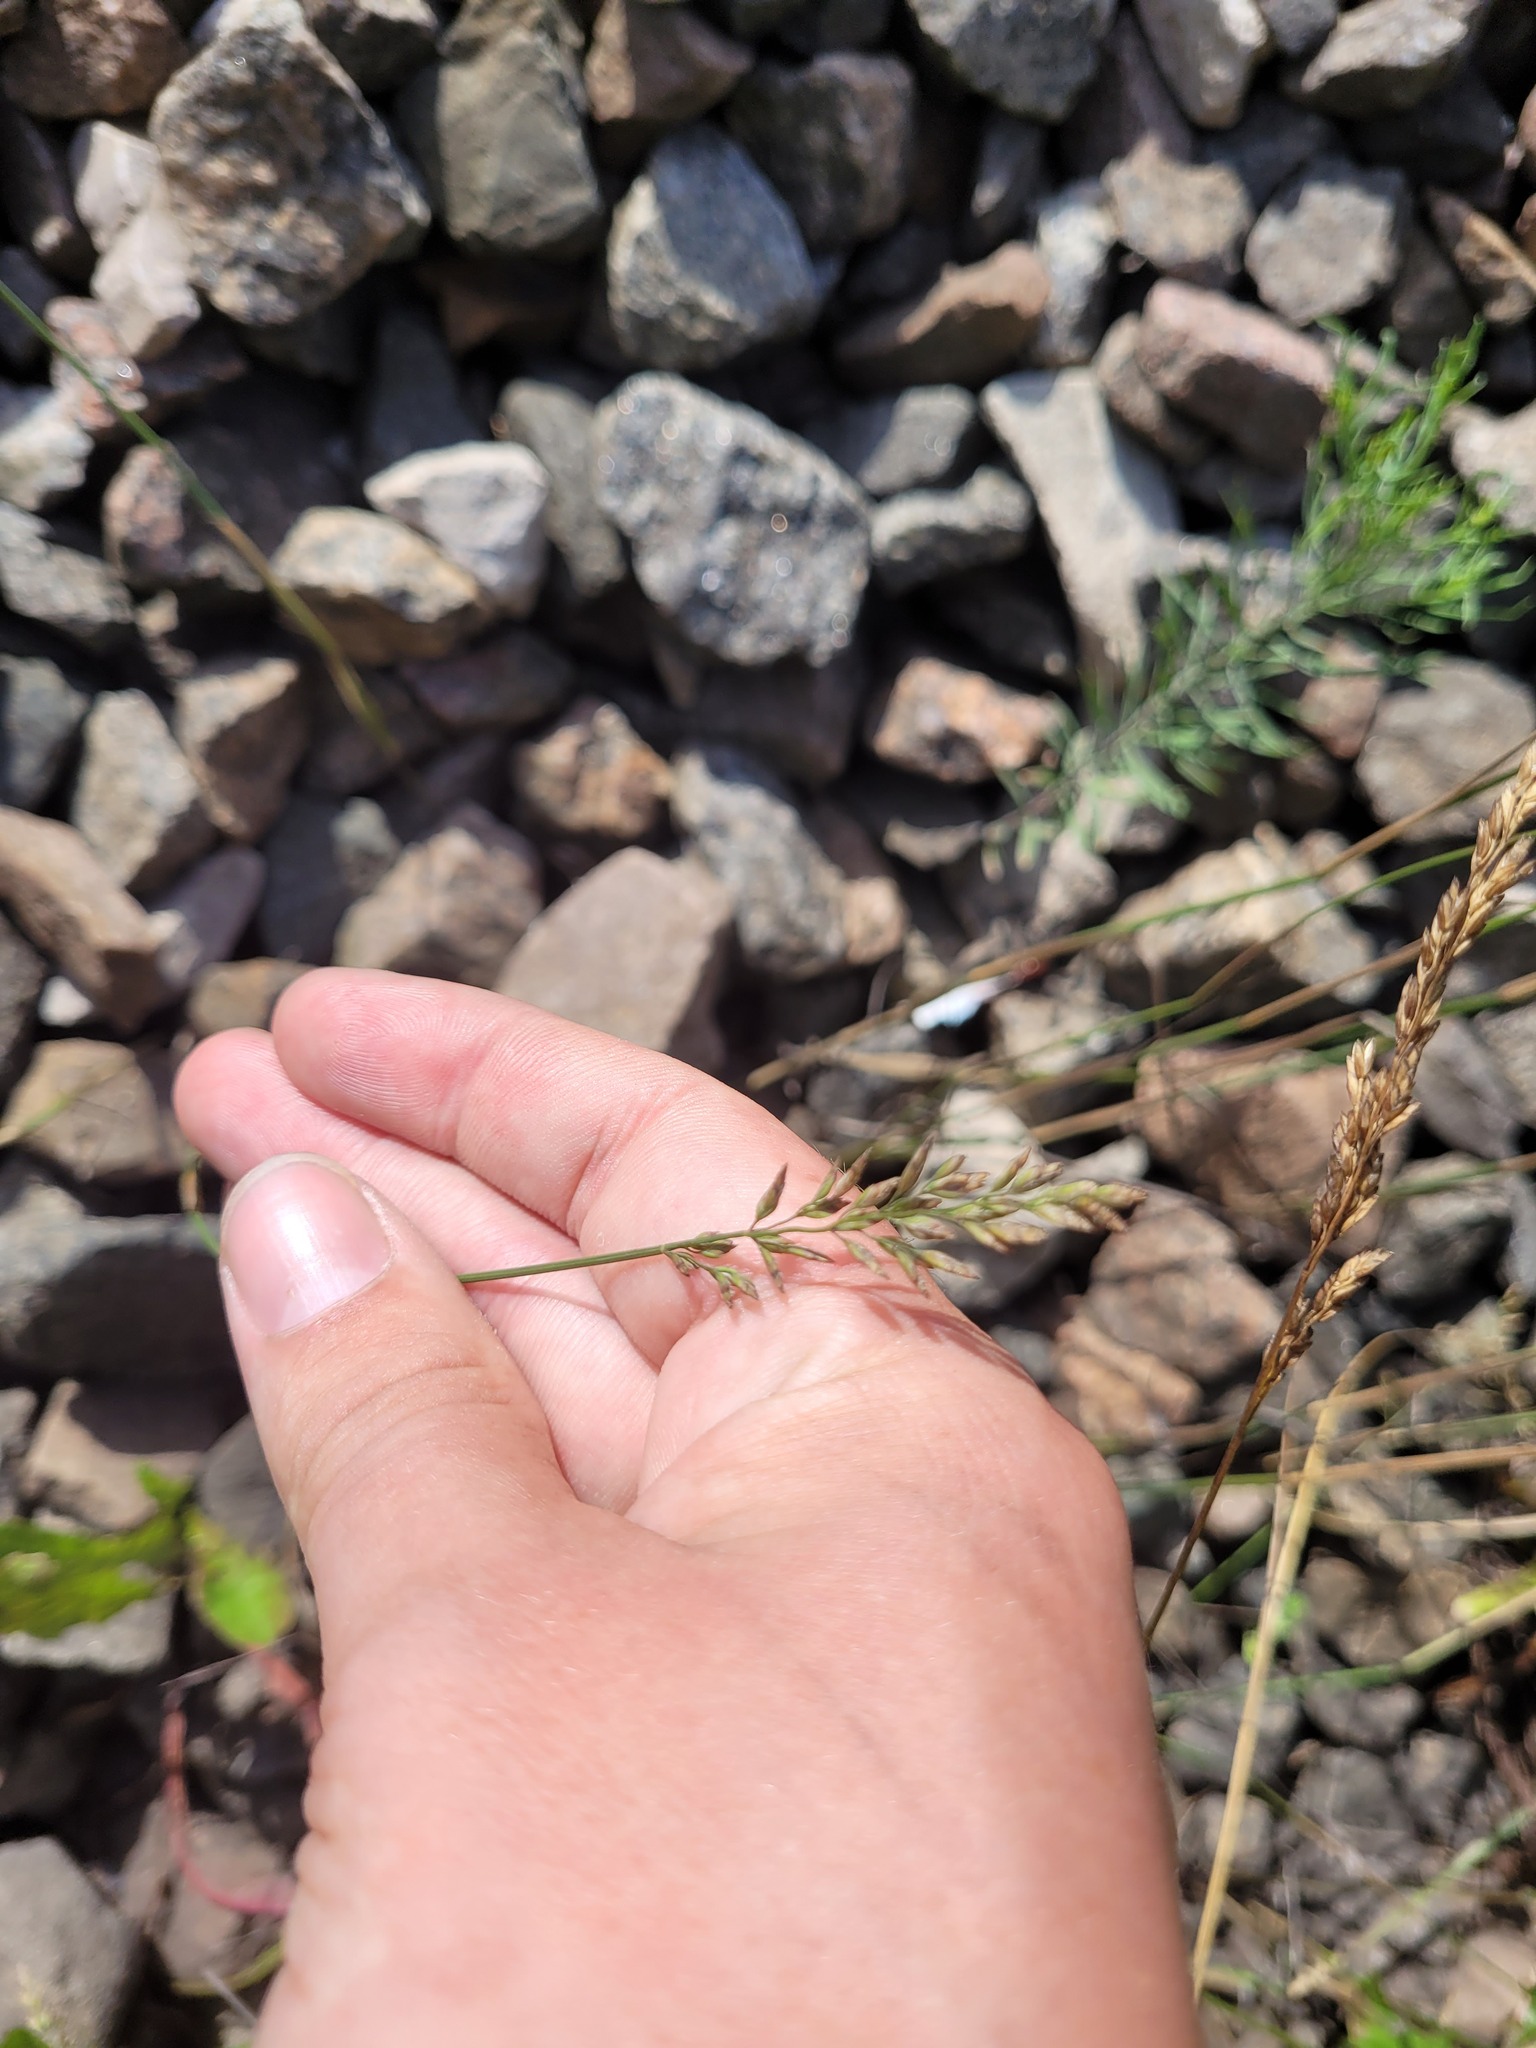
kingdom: Plantae
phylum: Tracheophyta
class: Liliopsida
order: Poales
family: Poaceae
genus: Poa
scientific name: Poa compressa
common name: Canada bluegrass
